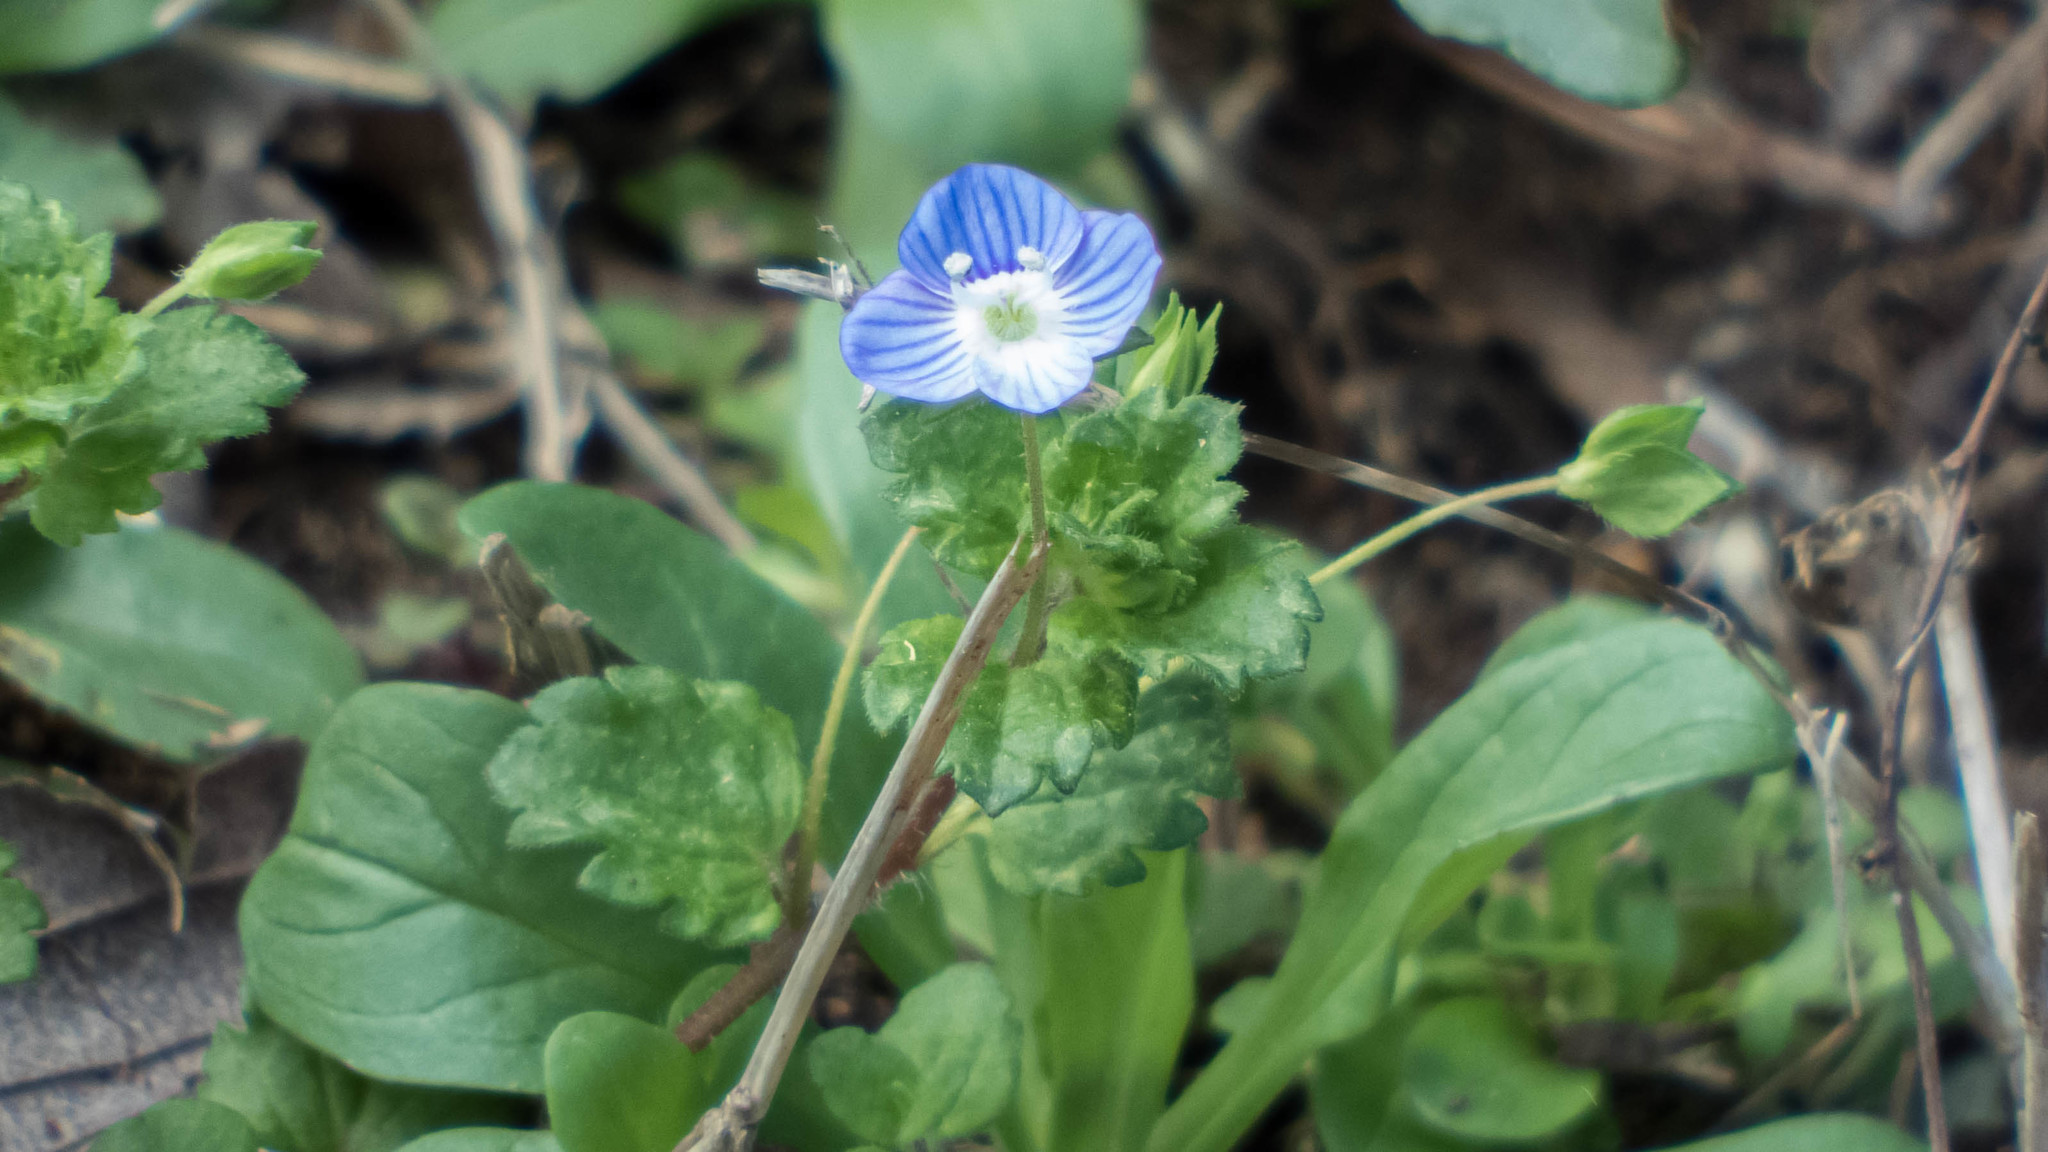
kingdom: Plantae
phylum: Tracheophyta
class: Magnoliopsida
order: Lamiales
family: Plantaginaceae
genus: Veronica
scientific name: Veronica persica
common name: Common field-speedwell
